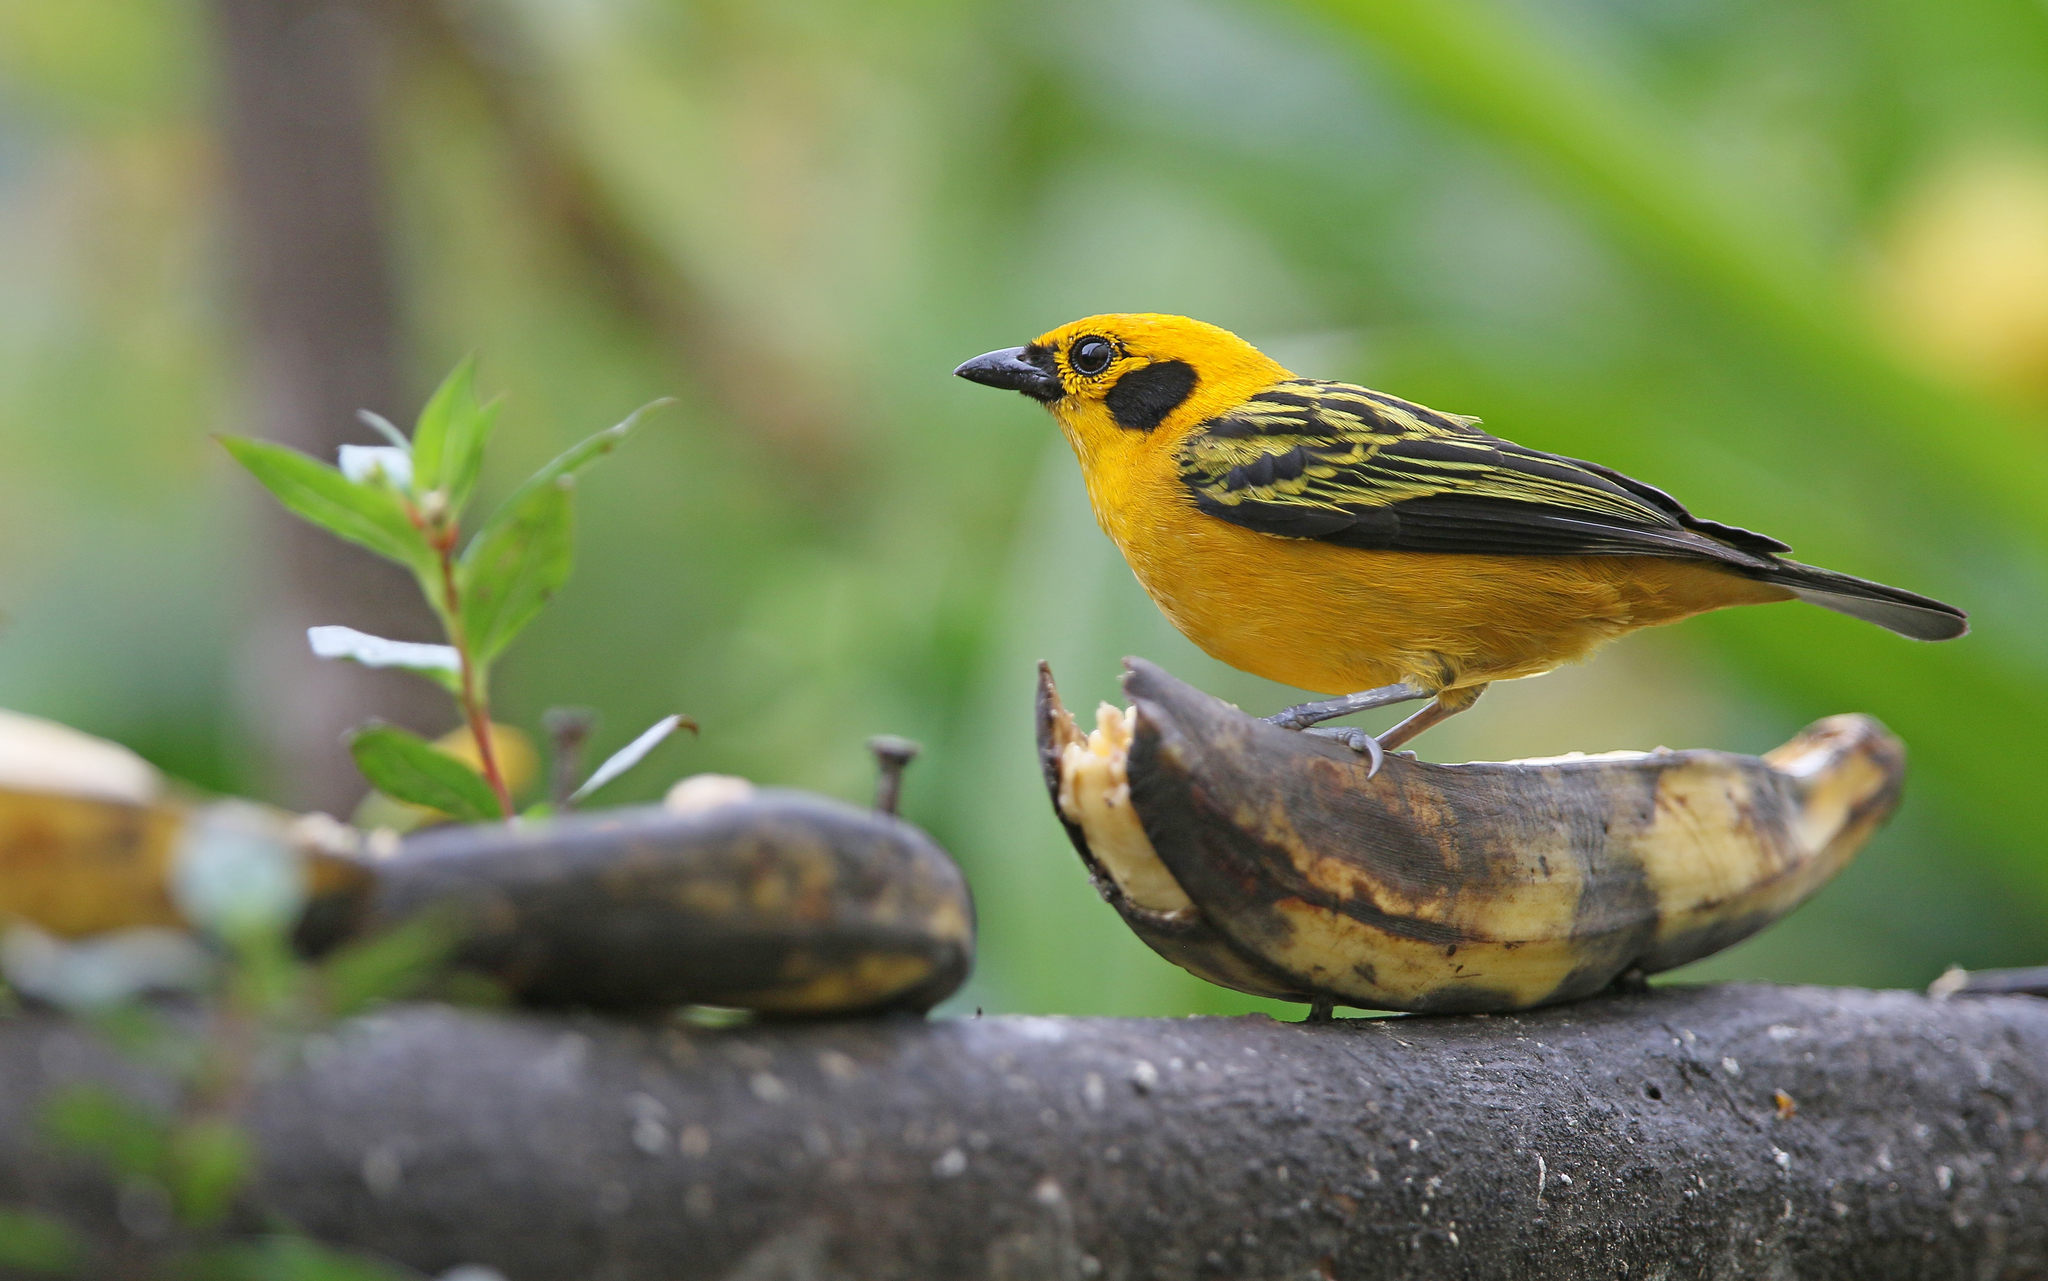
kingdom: Animalia
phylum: Chordata
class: Aves
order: Passeriformes
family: Thraupidae
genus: Tangara
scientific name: Tangara arthus
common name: Golden tanager
